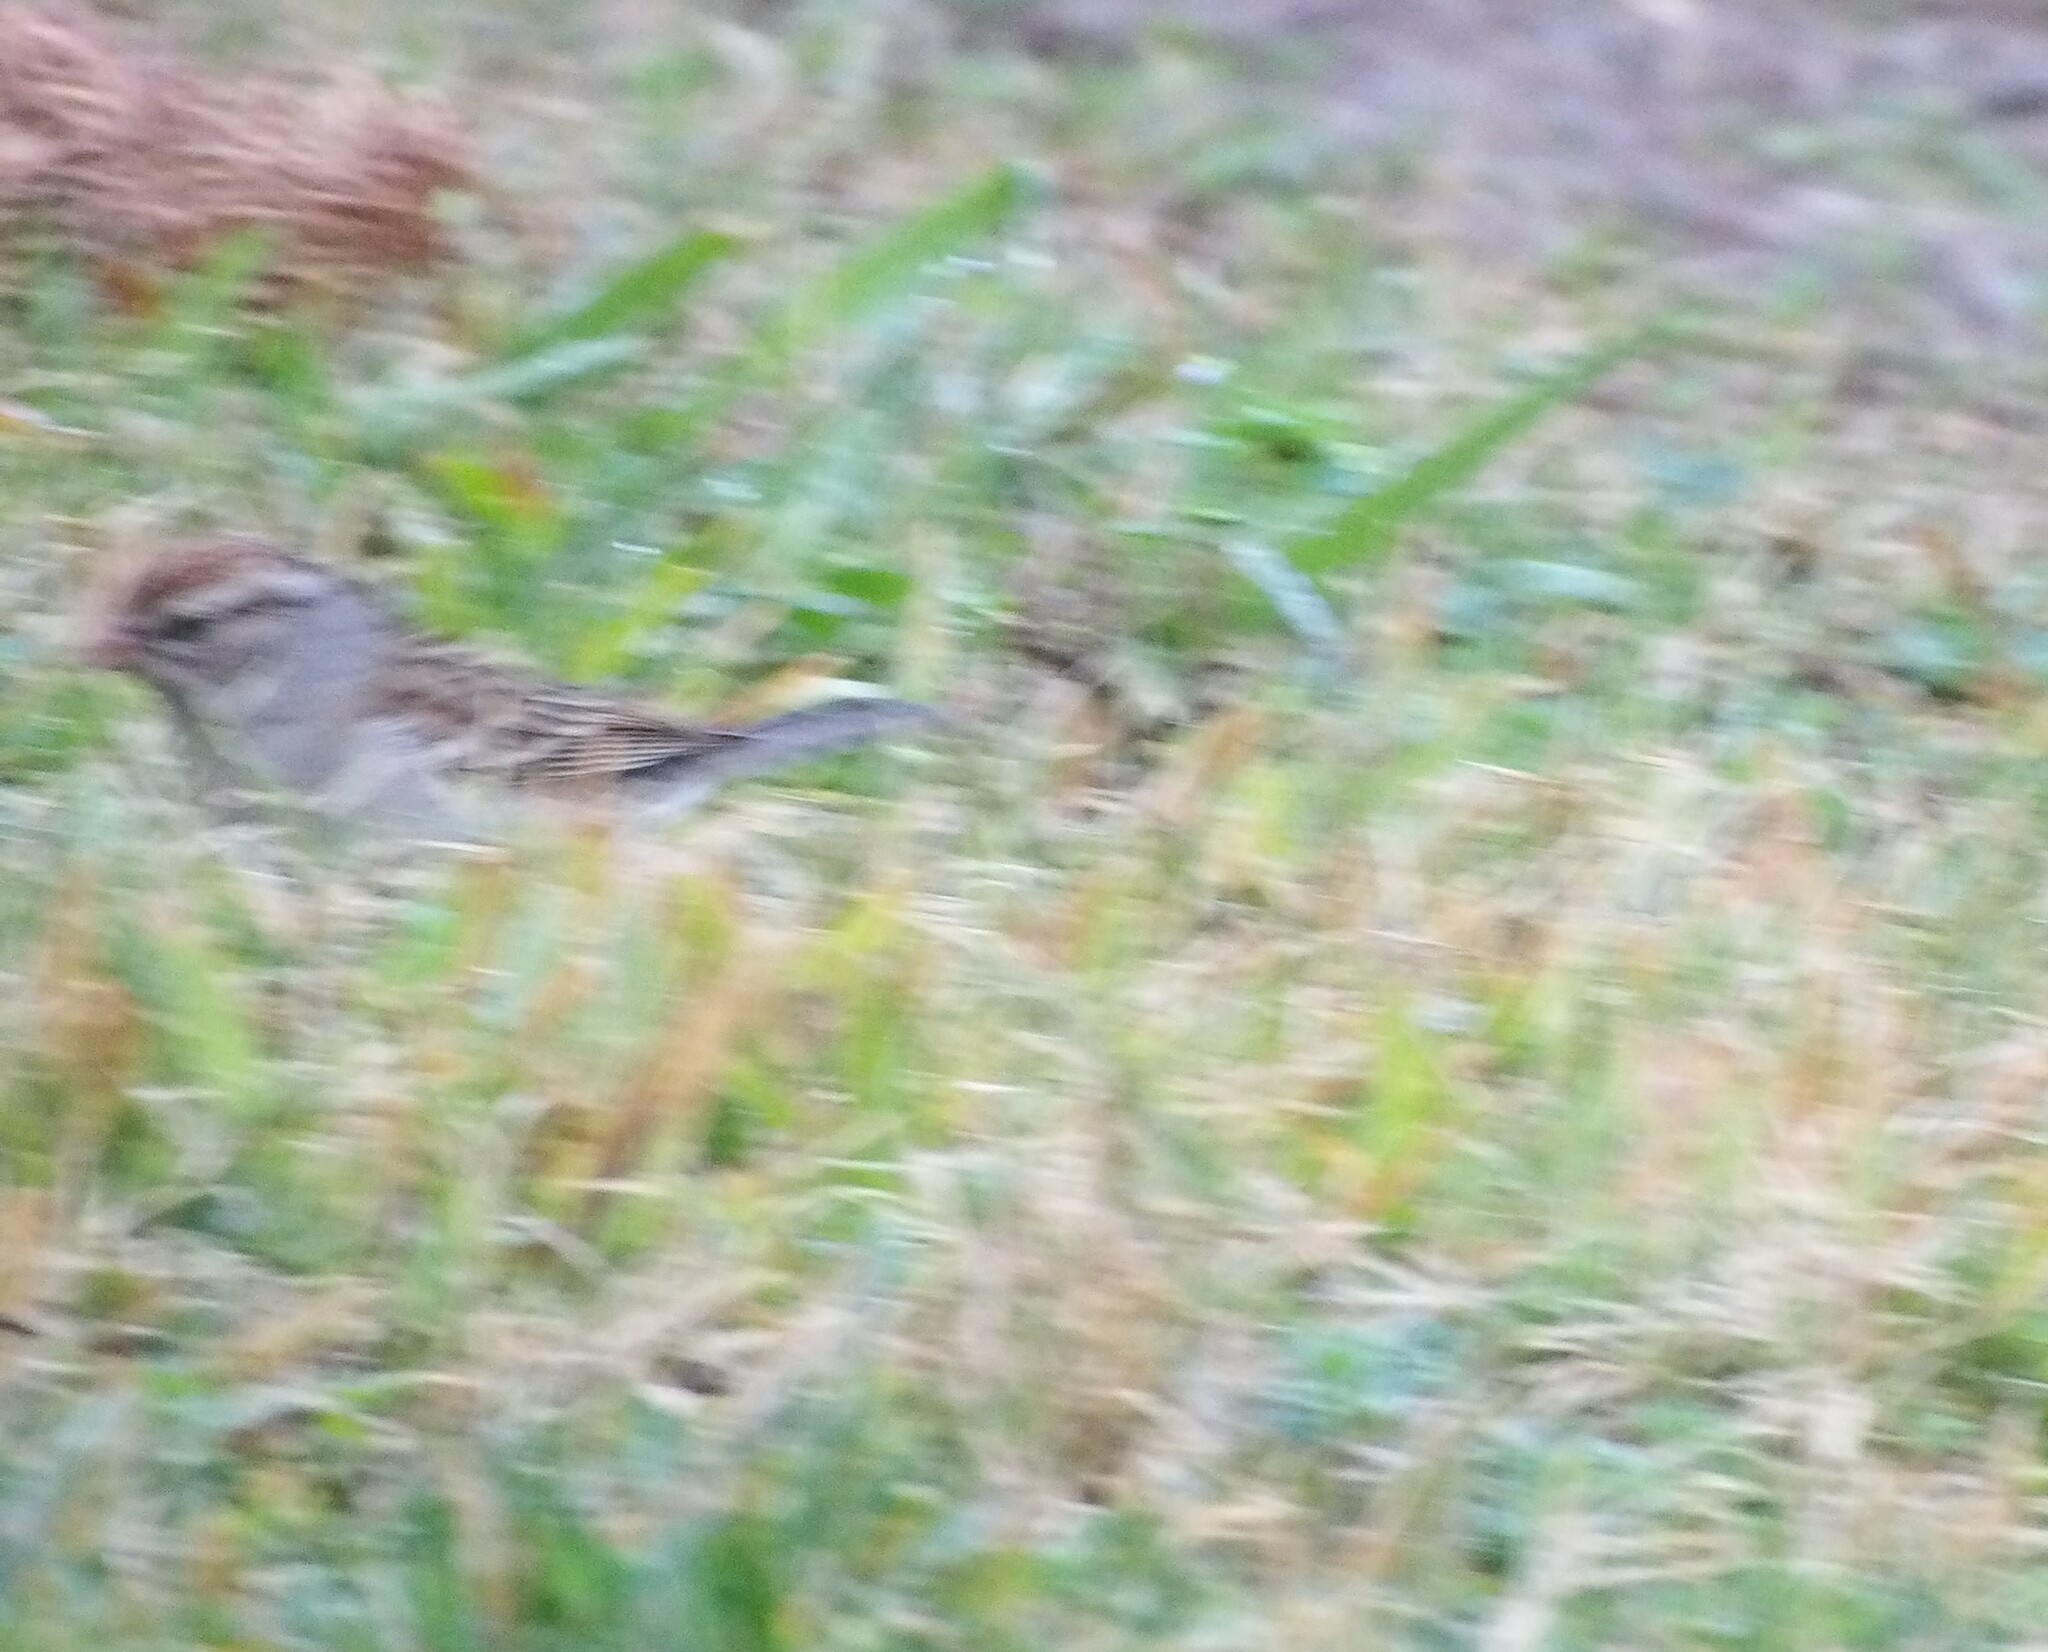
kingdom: Animalia
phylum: Chordata
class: Aves
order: Passeriformes
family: Passerellidae
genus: Spizella
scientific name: Spizella passerina
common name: Chipping sparrow
